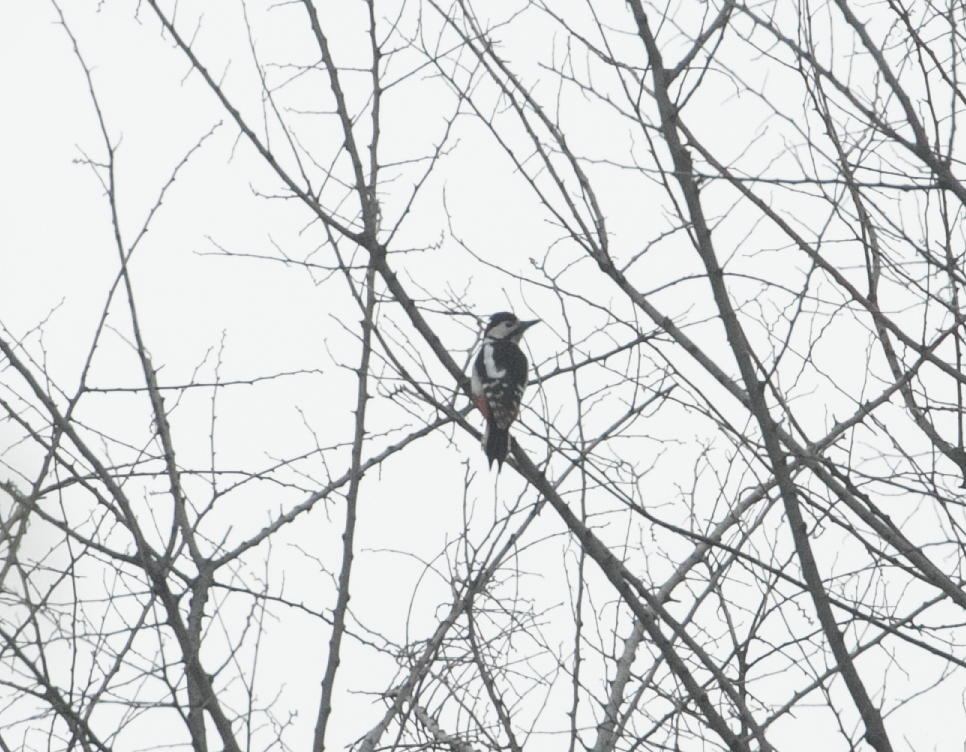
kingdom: Animalia
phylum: Chordata
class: Aves
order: Piciformes
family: Picidae
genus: Dendrocopos
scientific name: Dendrocopos major
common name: Great spotted woodpecker
